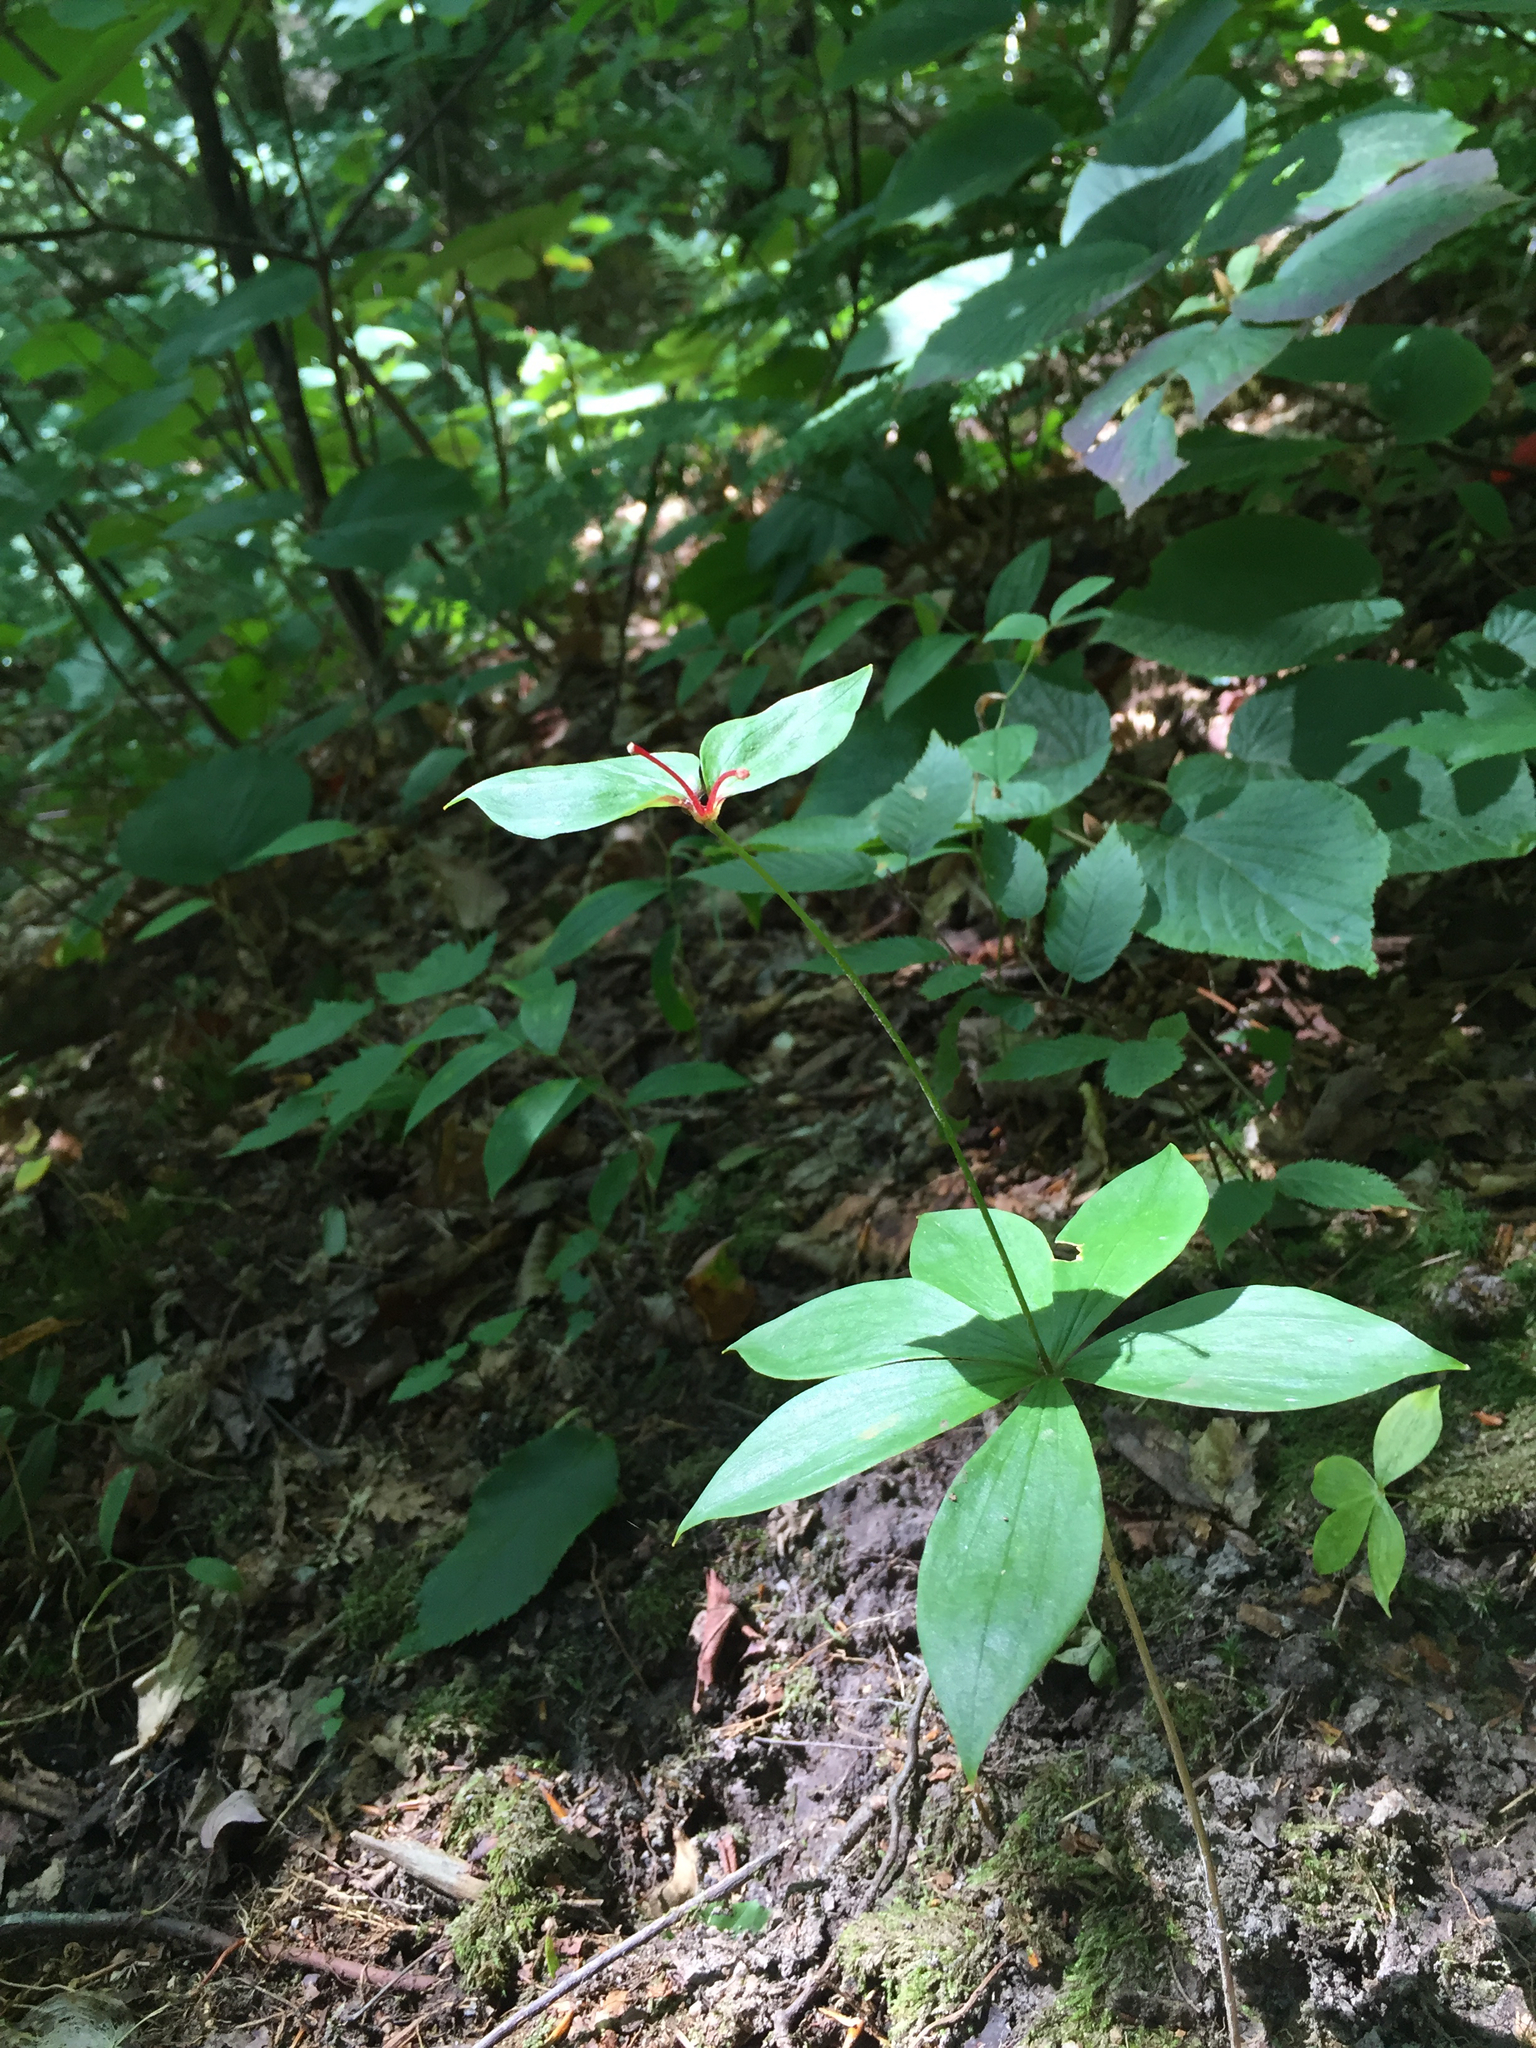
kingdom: Plantae
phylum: Tracheophyta
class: Liliopsida
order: Liliales
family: Liliaceae
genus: Medeola
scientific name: Medeola virginiana
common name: Indian cucumber-root
